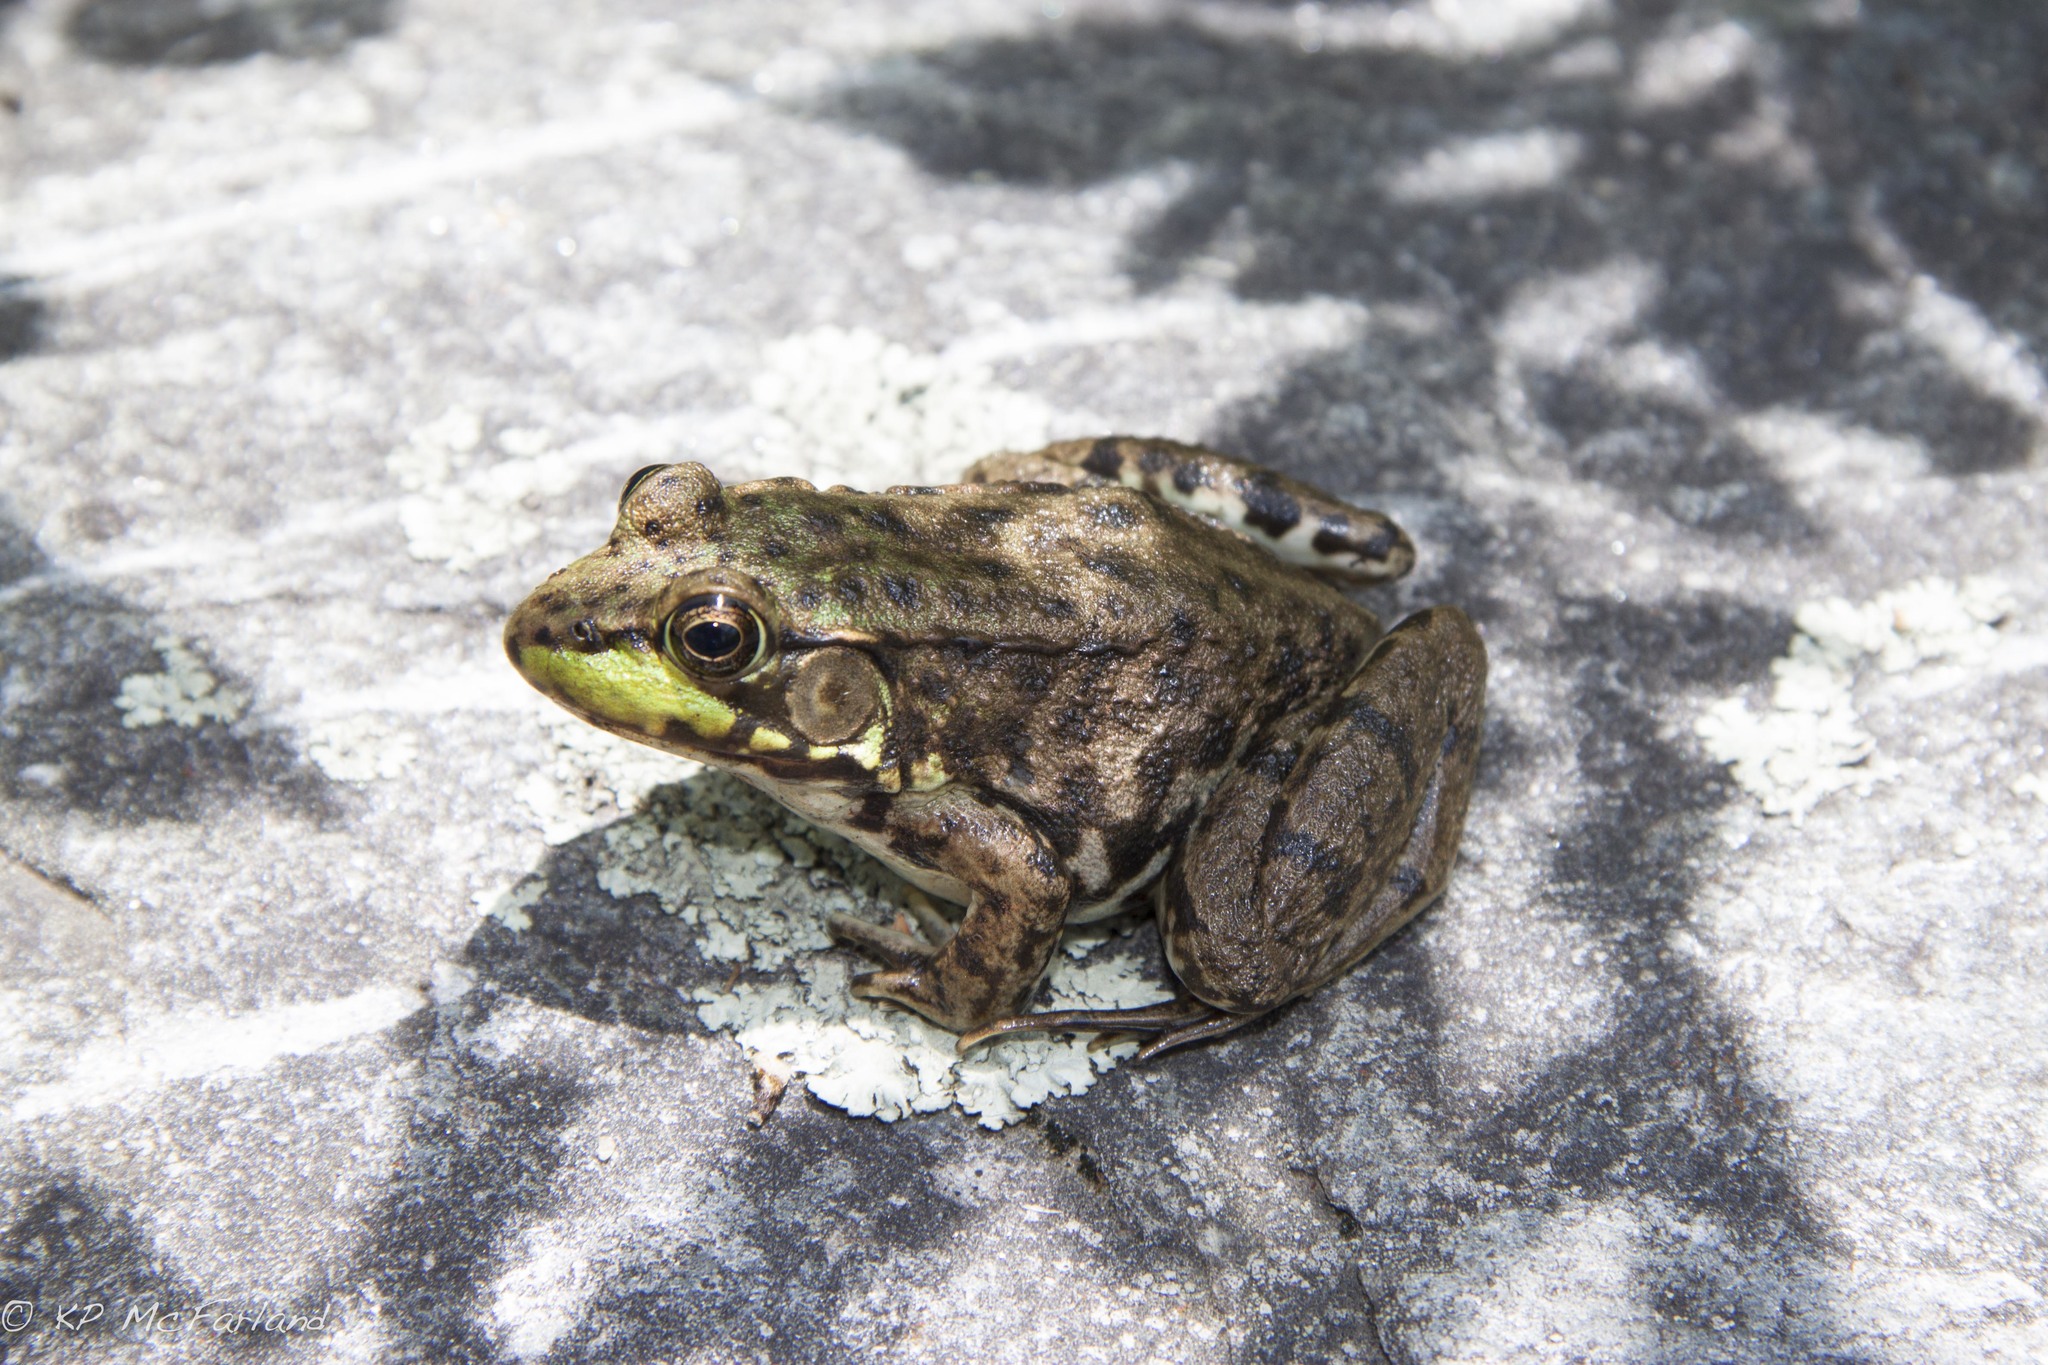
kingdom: Animalia
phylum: Chordata
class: Amphibia
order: Anura
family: Ranidae
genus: Lithobates
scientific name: Lithobates clamitans
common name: Green frog
